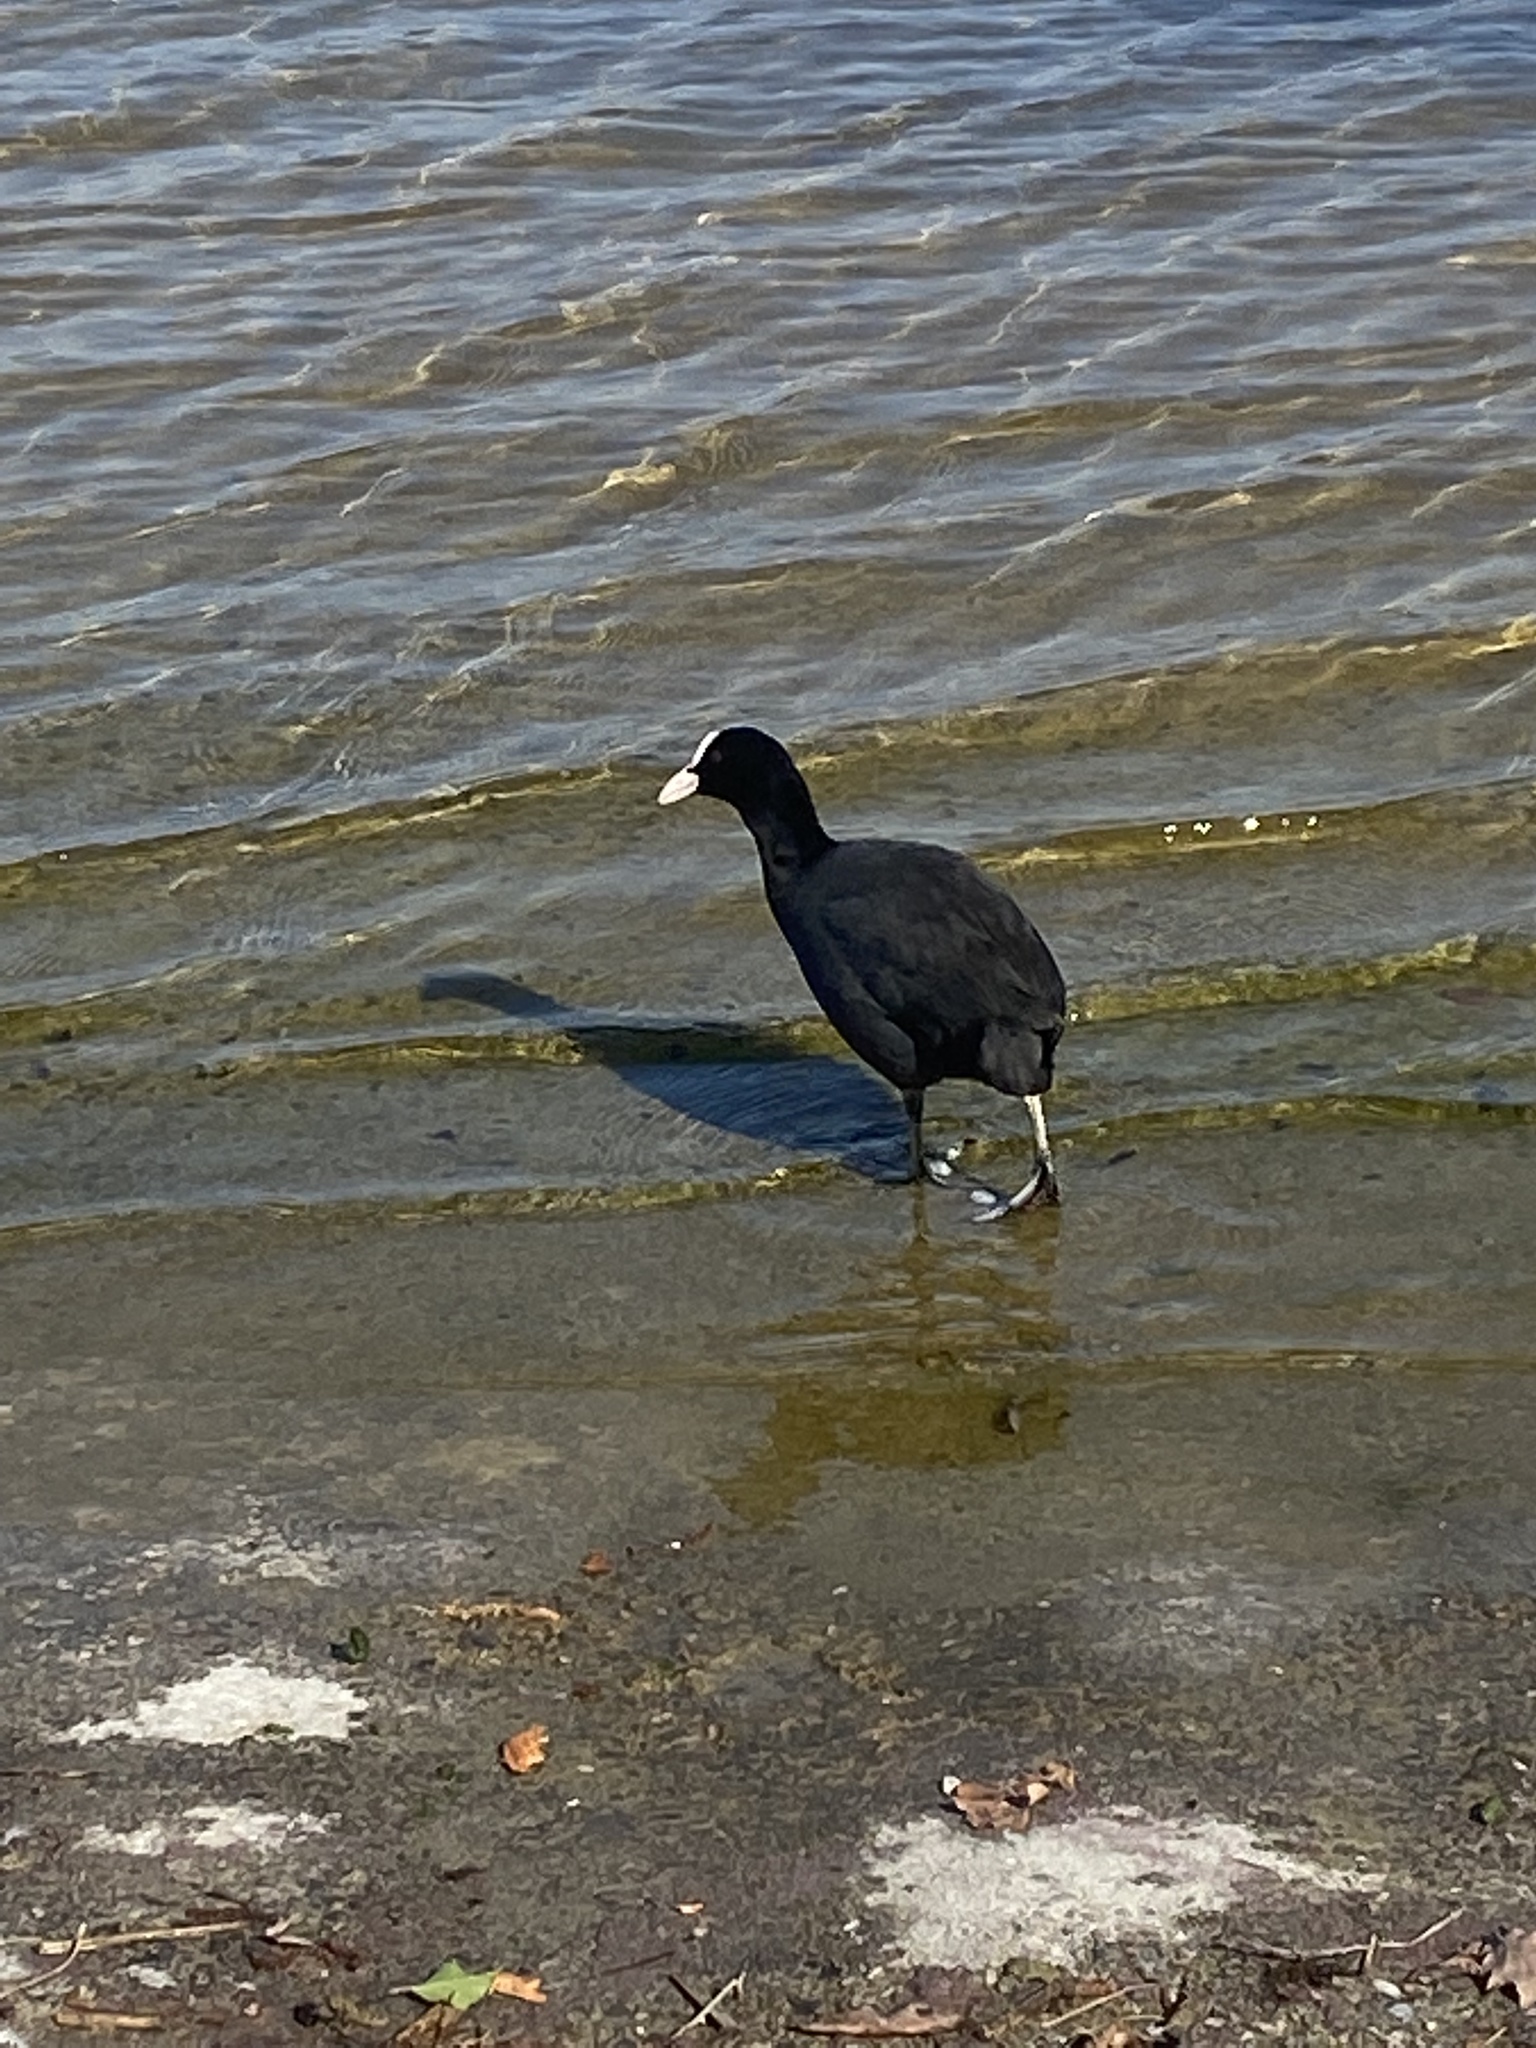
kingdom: Animalia
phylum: Chordata
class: Aves
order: Gruiformes
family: Rallidae
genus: Fulica
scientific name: Fulica atra
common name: Eurasian coot
